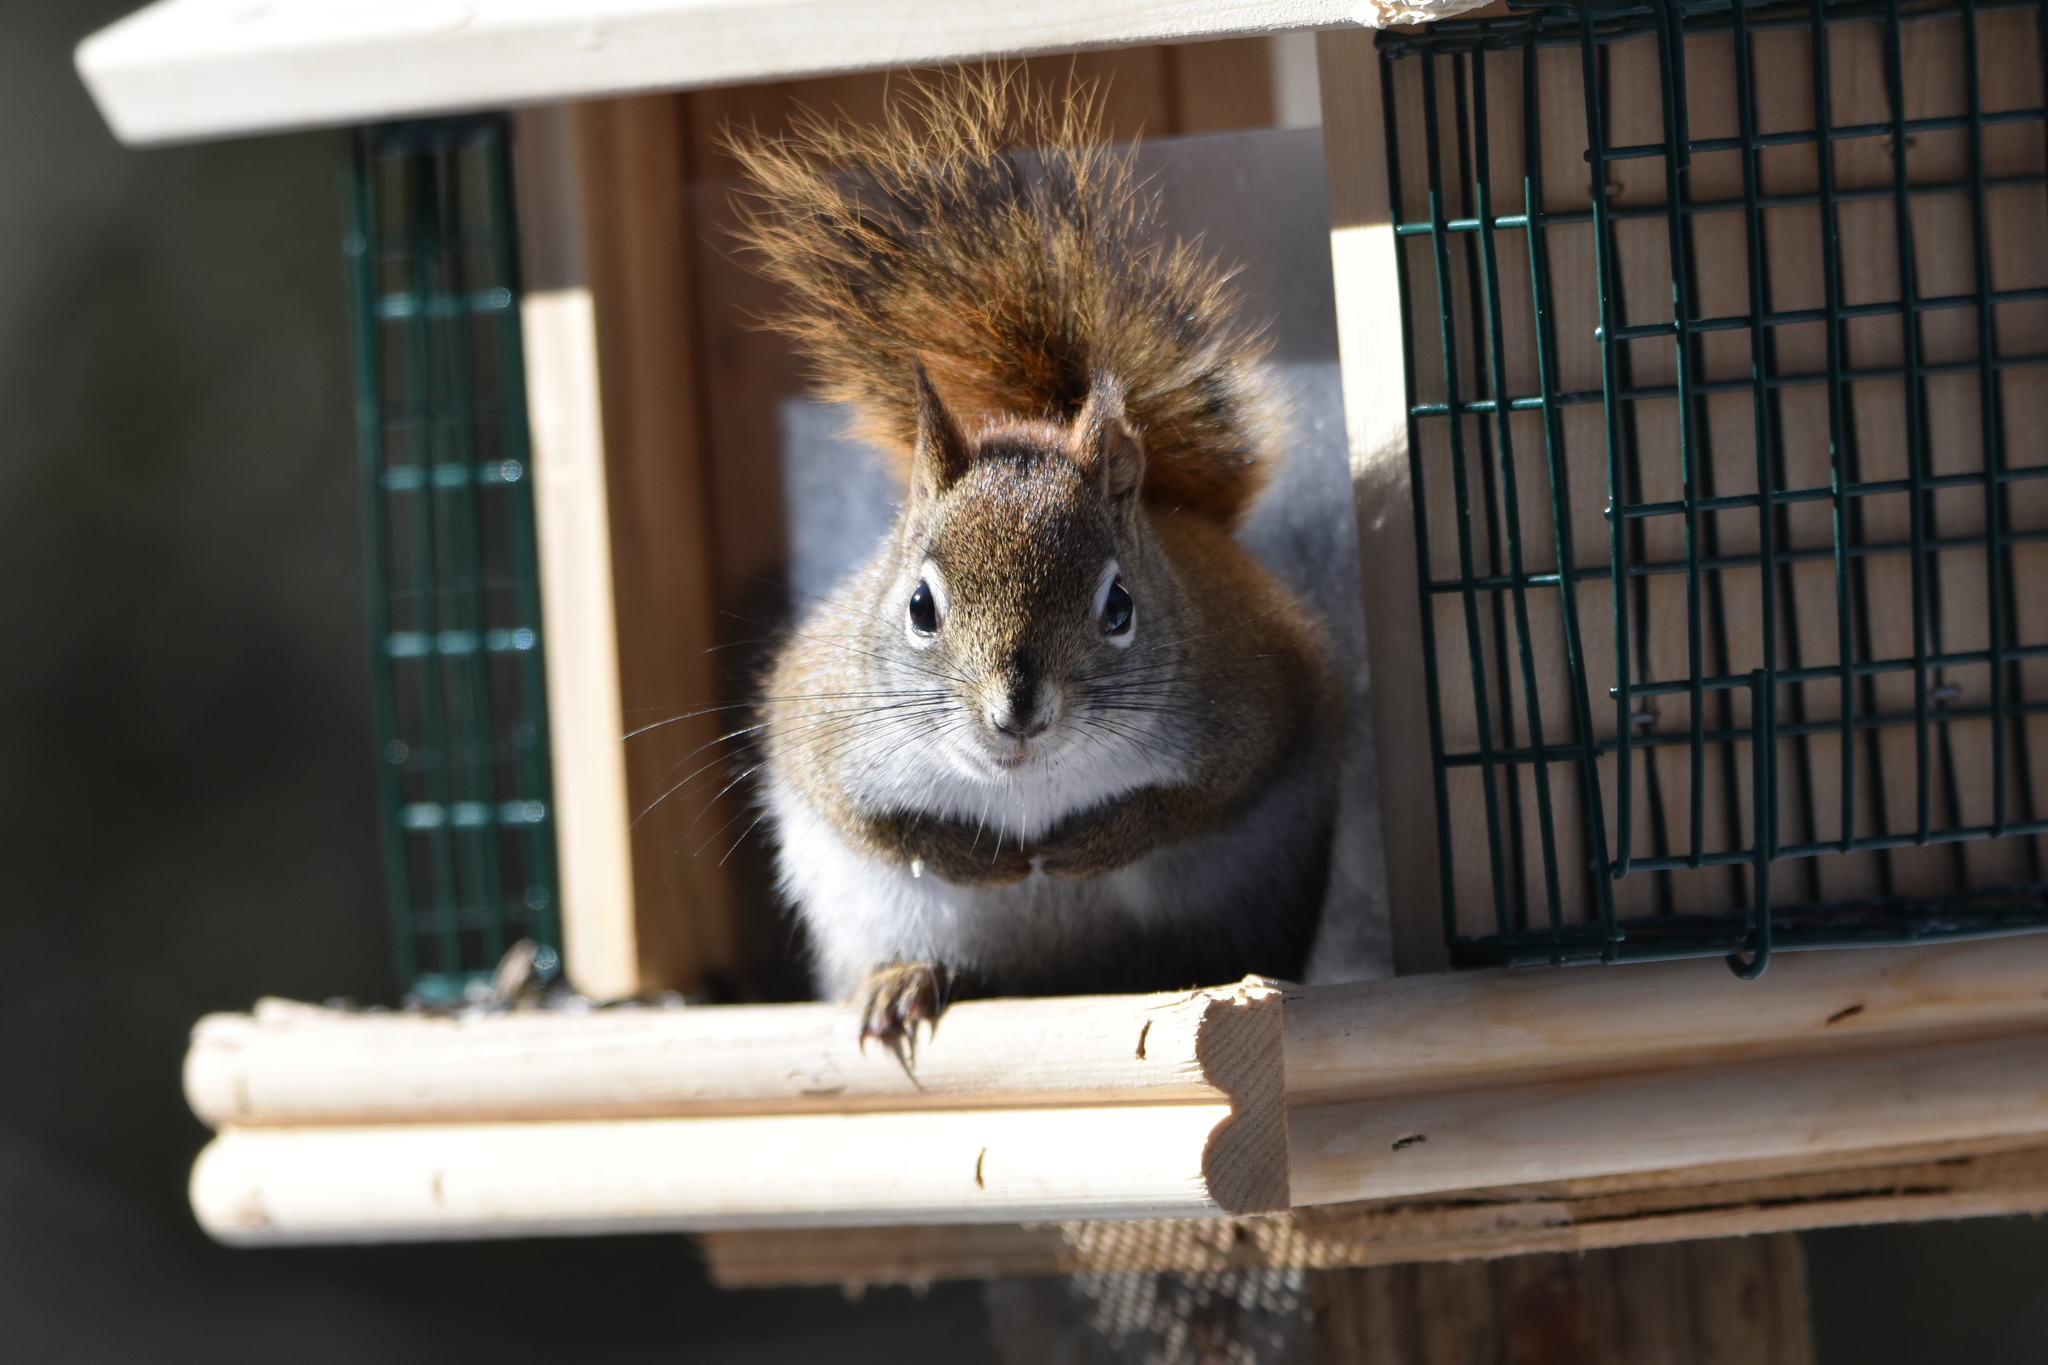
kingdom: Animalia
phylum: Chordata
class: Mammalia
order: Rodentia
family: Sciuridae
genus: Tamiasciurus
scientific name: Tamiasciurus hudsonicus
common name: Red squirrel
